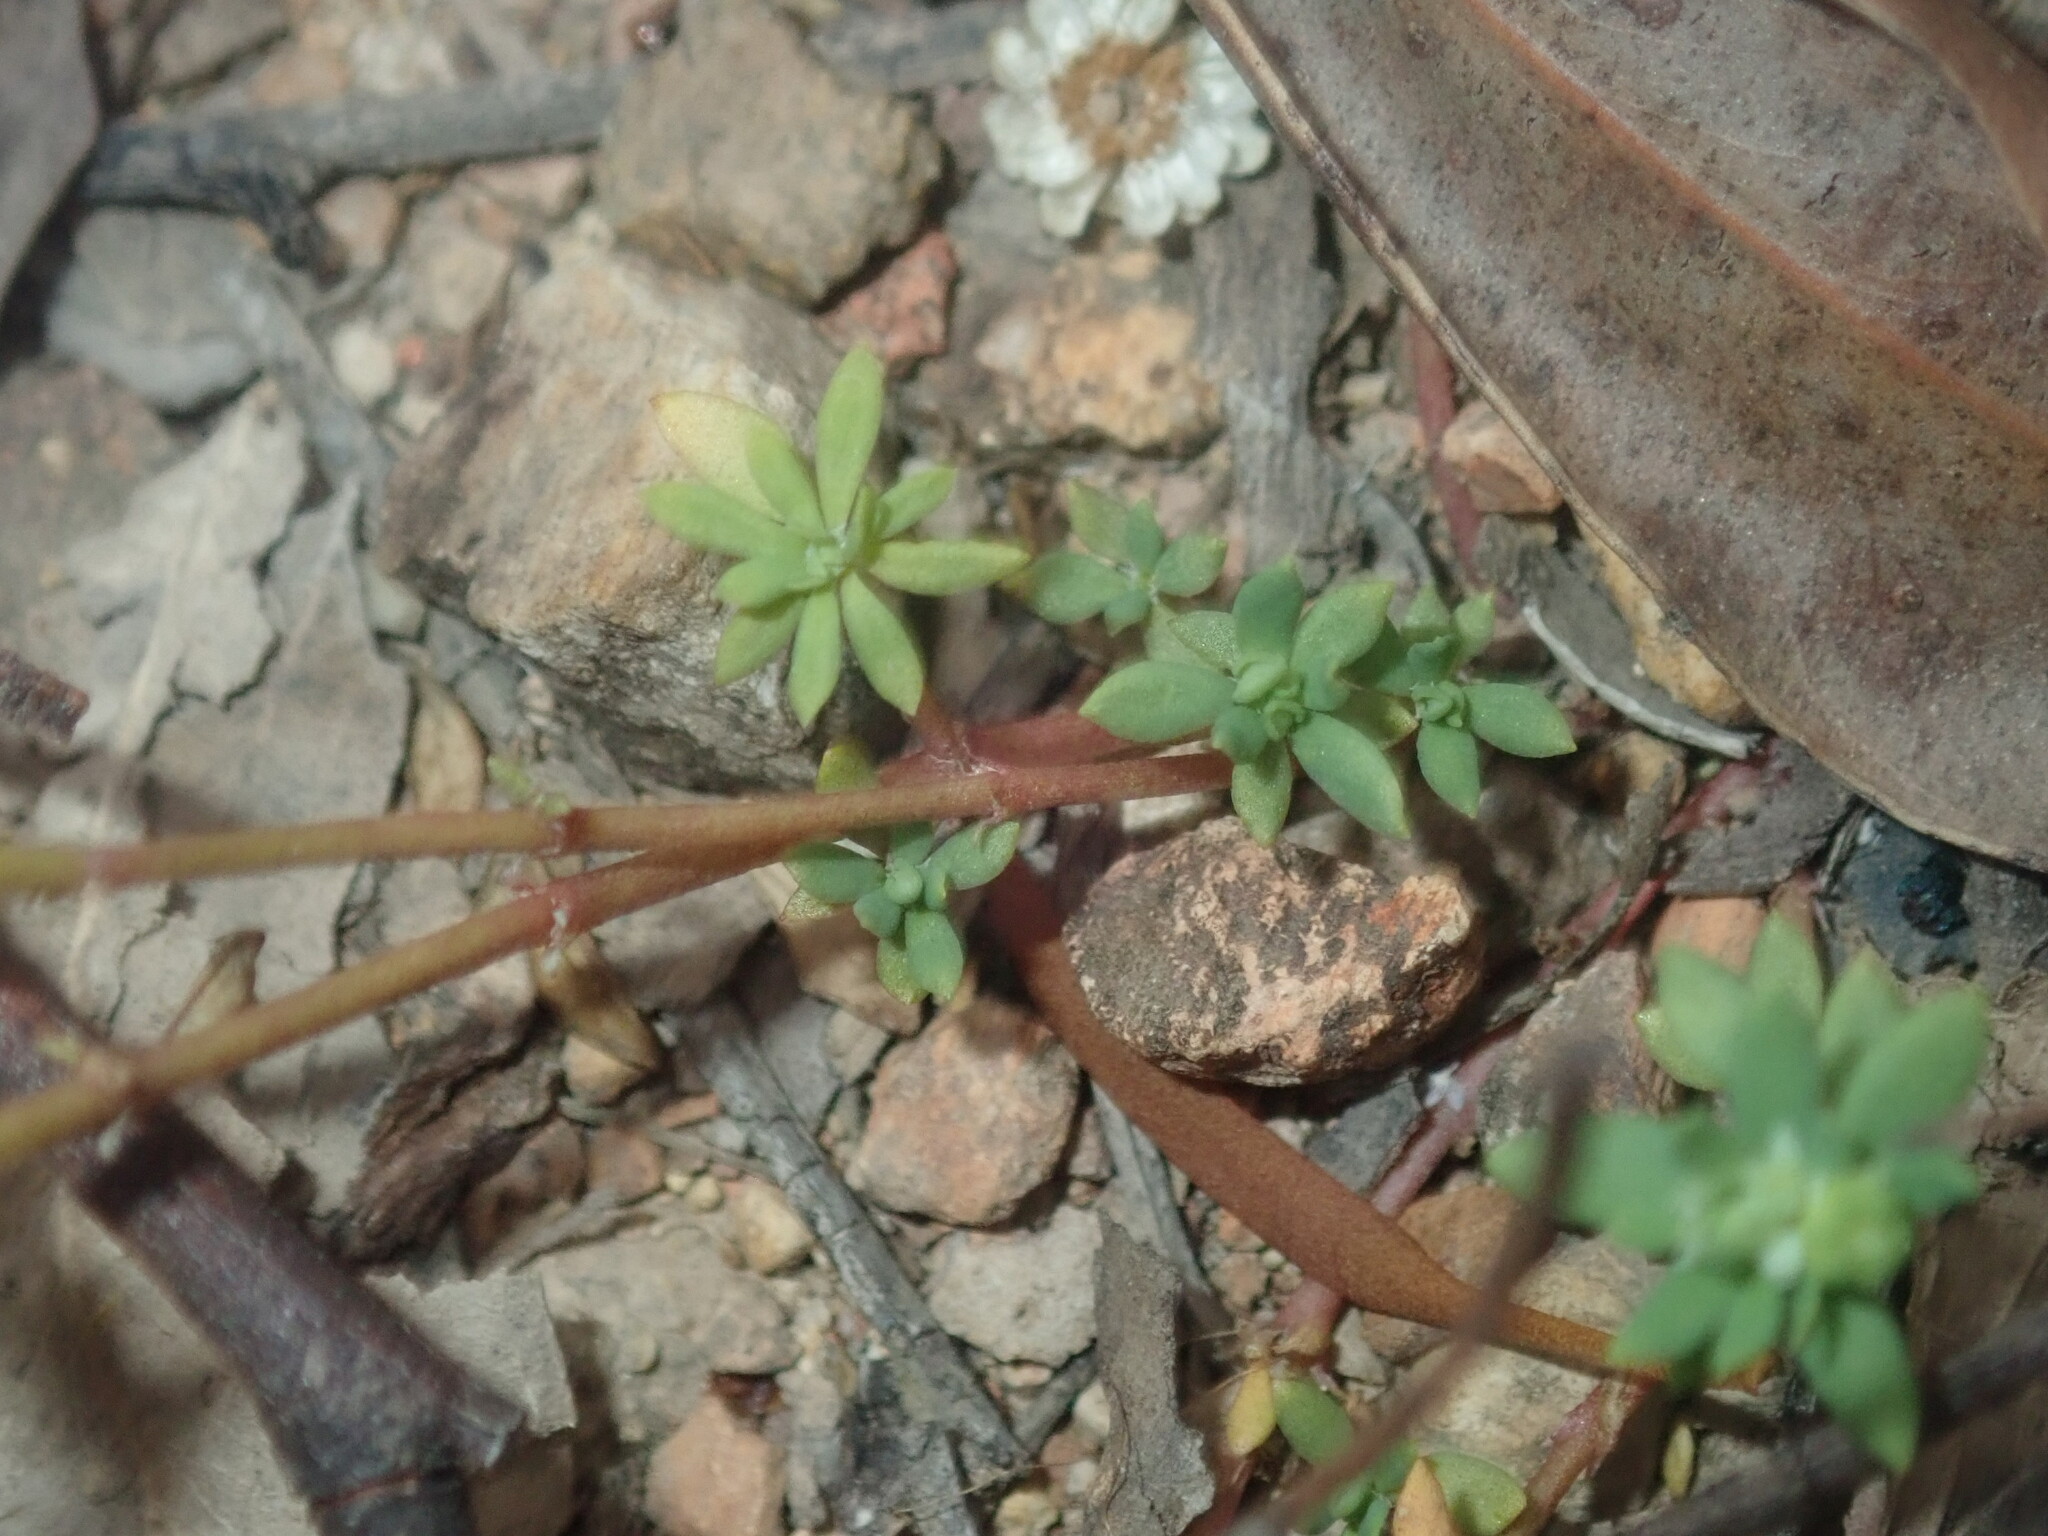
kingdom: Plantae
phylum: Tracheophyta
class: Magnoliopsida
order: Malpighiales
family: Phyllanthaceae
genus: Poranthera
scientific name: Poranthera microphylla
